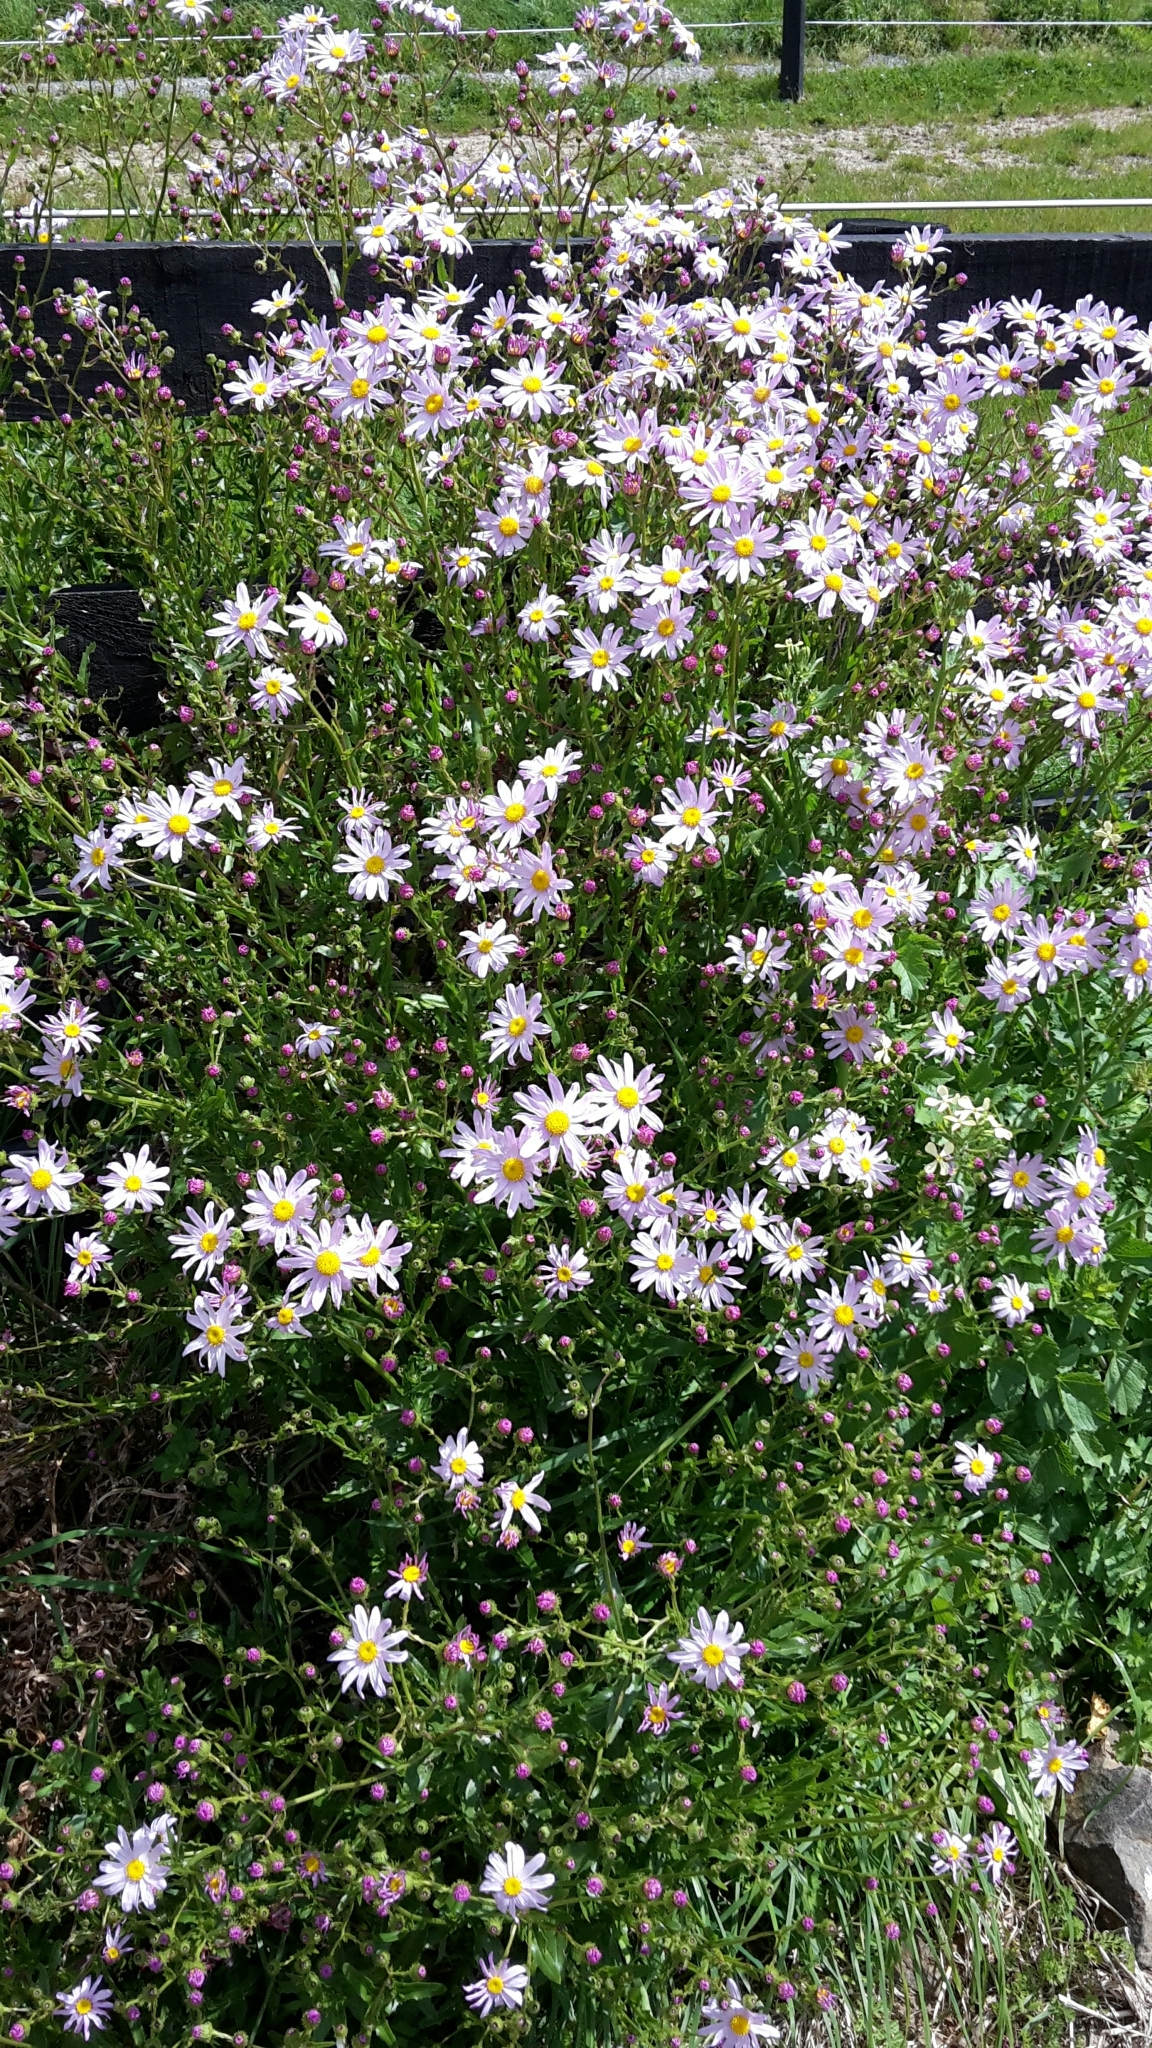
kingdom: Plantae
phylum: Tracheophyta
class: Magnoliopsida
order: Asterales
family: Asteraceae
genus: Senecio
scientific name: Senecio glastifolius
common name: Woad-leaved ragwort
